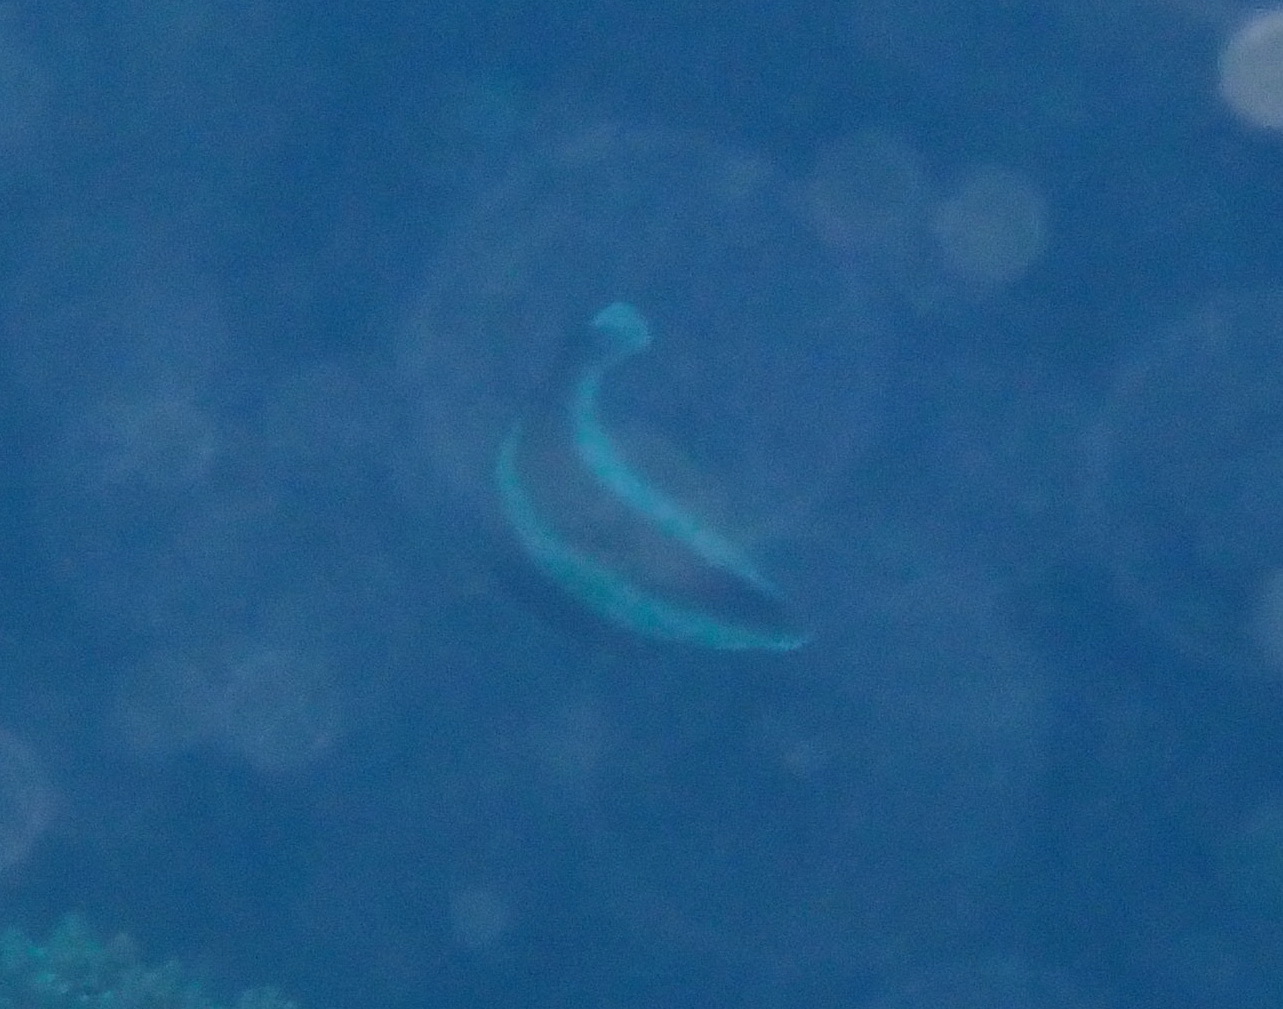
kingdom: Animalia
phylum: Chordata
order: Perciformes
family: Chaetodontidae
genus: Heniochus
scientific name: Heniochus chrysostomus
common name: Horned bannerfish
